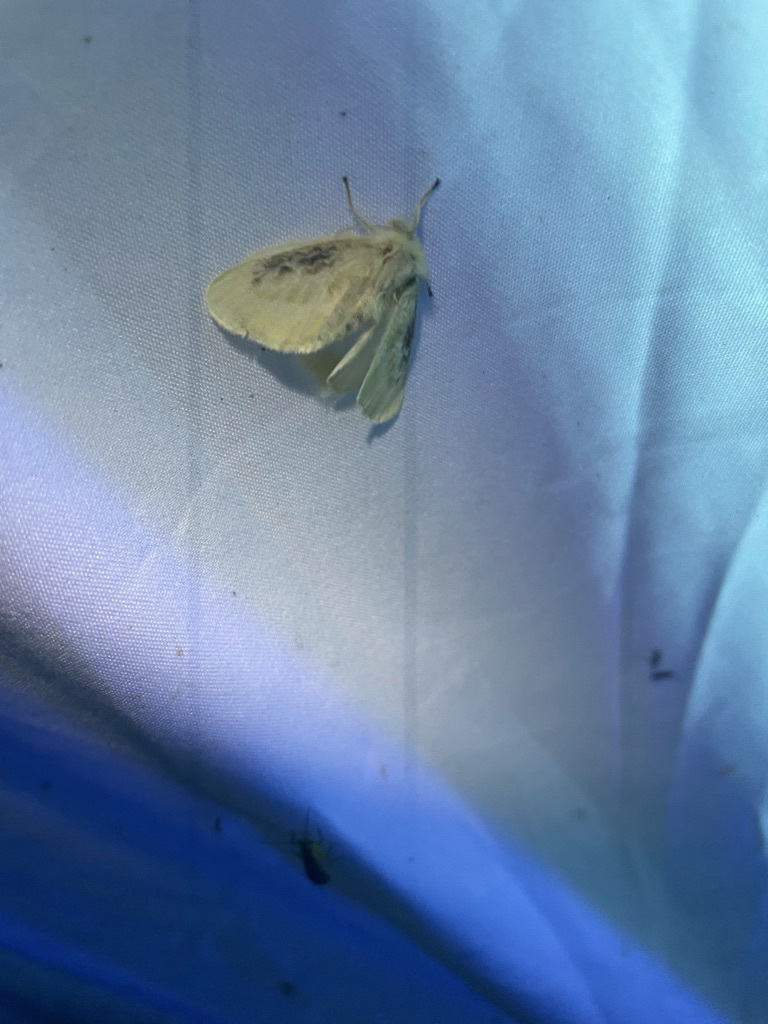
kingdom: Animalia
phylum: Arthropoda
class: Insecta
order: Lepidoptera
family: Megalopygidae
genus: Megalopyge
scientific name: Megalopyge crispata
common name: Black-waved flannel moth
